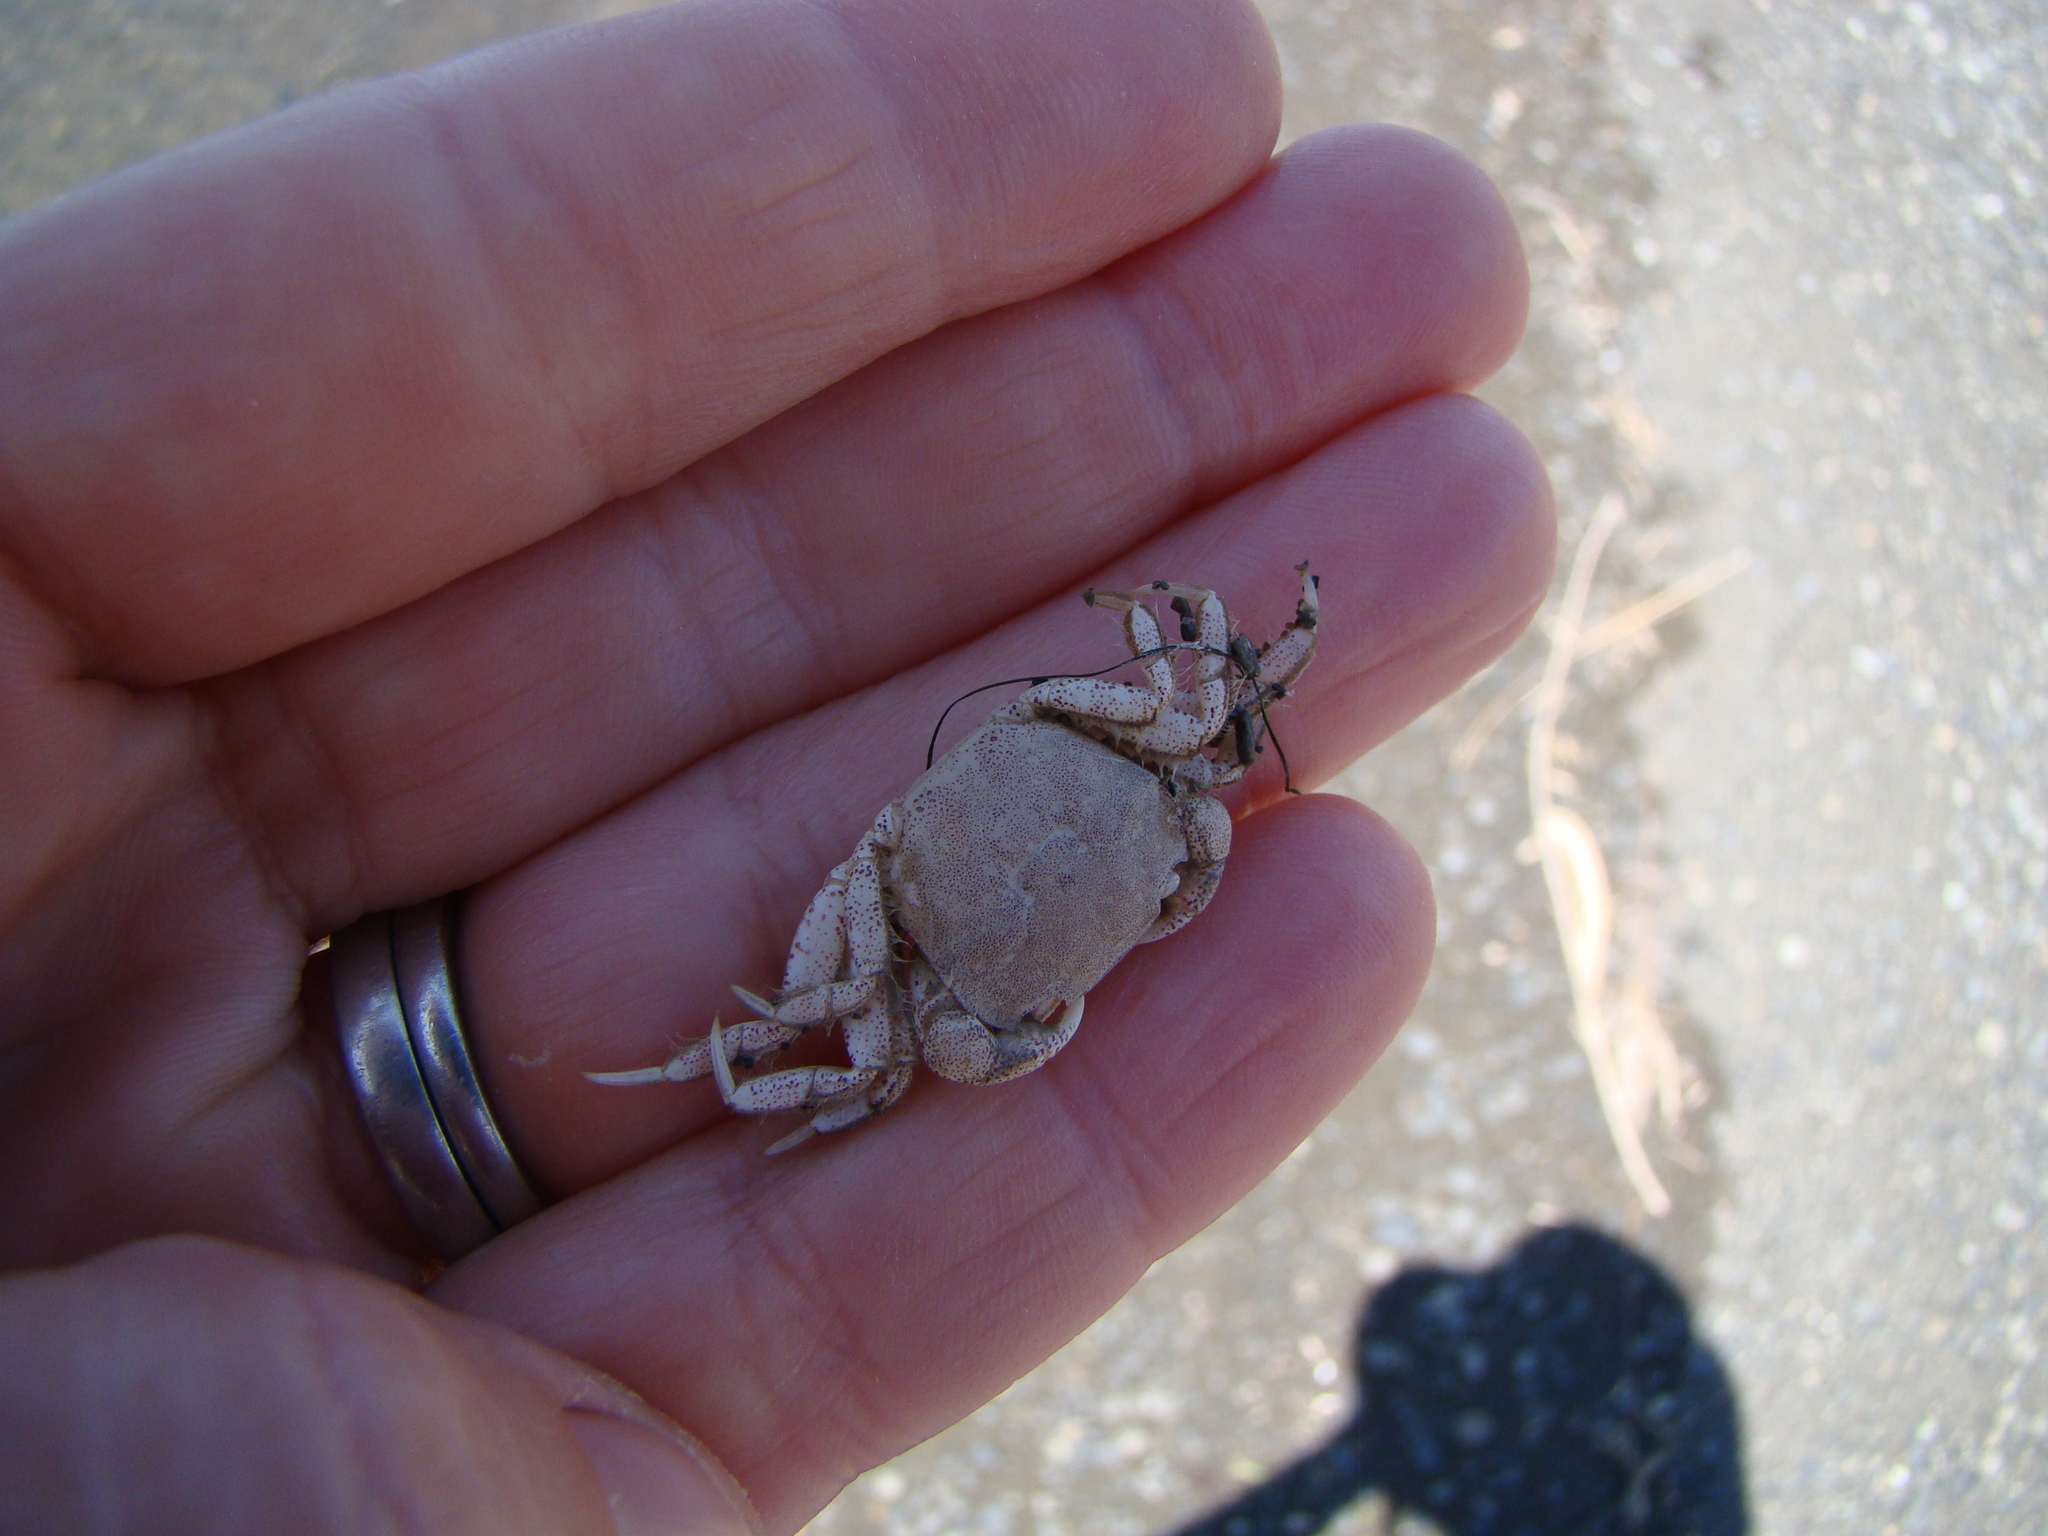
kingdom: Animalia
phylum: Arthropoda
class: Malacostraca
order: Decapoda
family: Varunidae
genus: Hemigrapsus
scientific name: Hemigrapsus crenulatus
